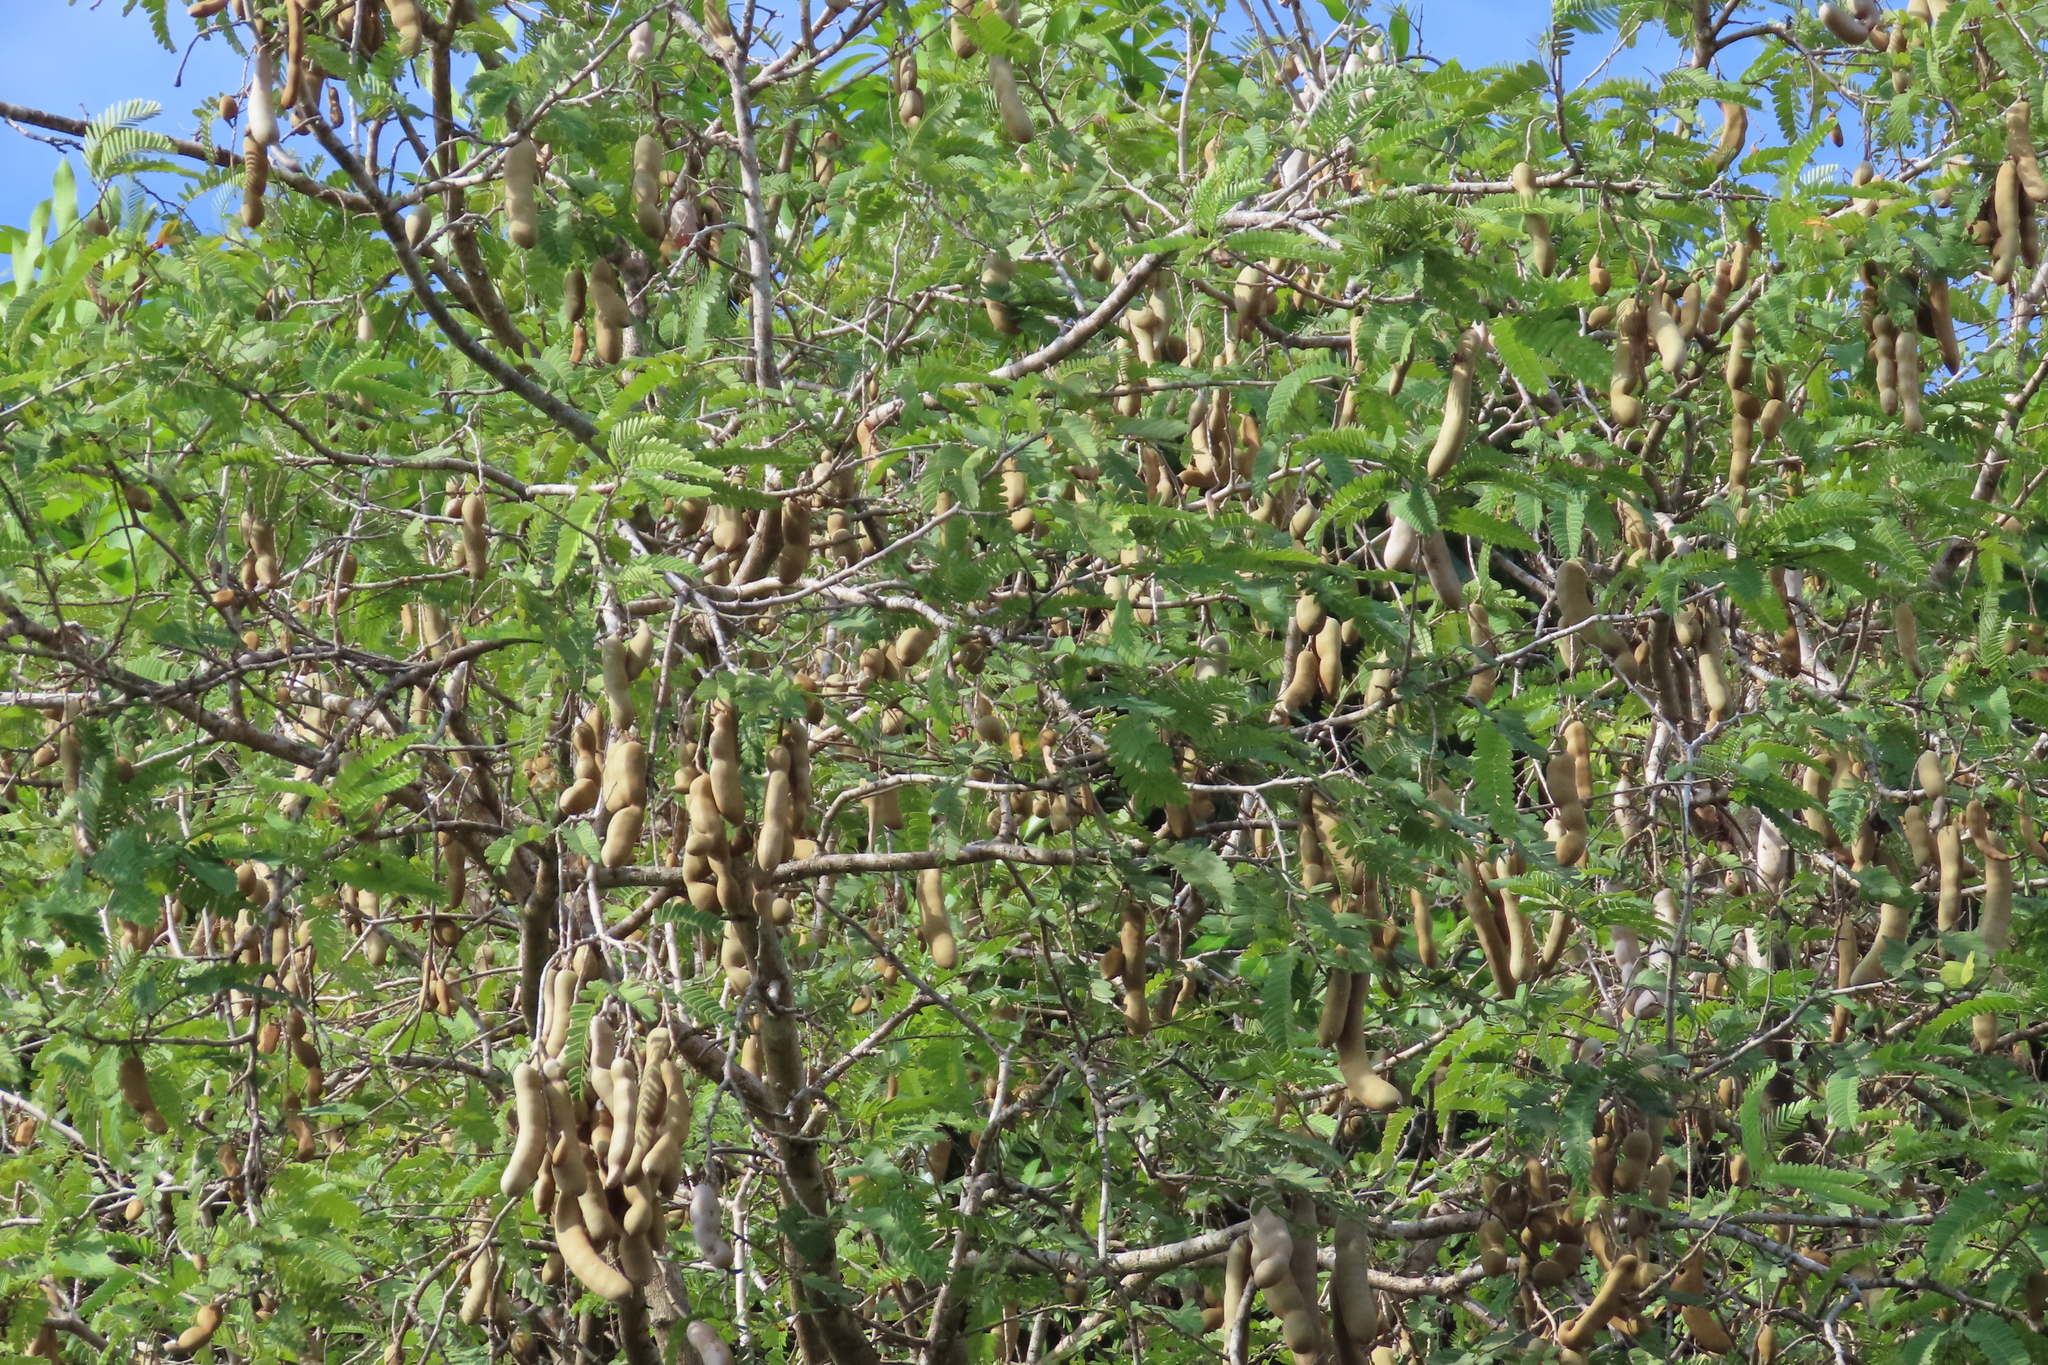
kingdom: Plantae
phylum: Tracheophyta
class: Magnoliopsida
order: Fabales
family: Fabaceae
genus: Tamarindus
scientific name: Tamarindus indica
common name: Tamarind
